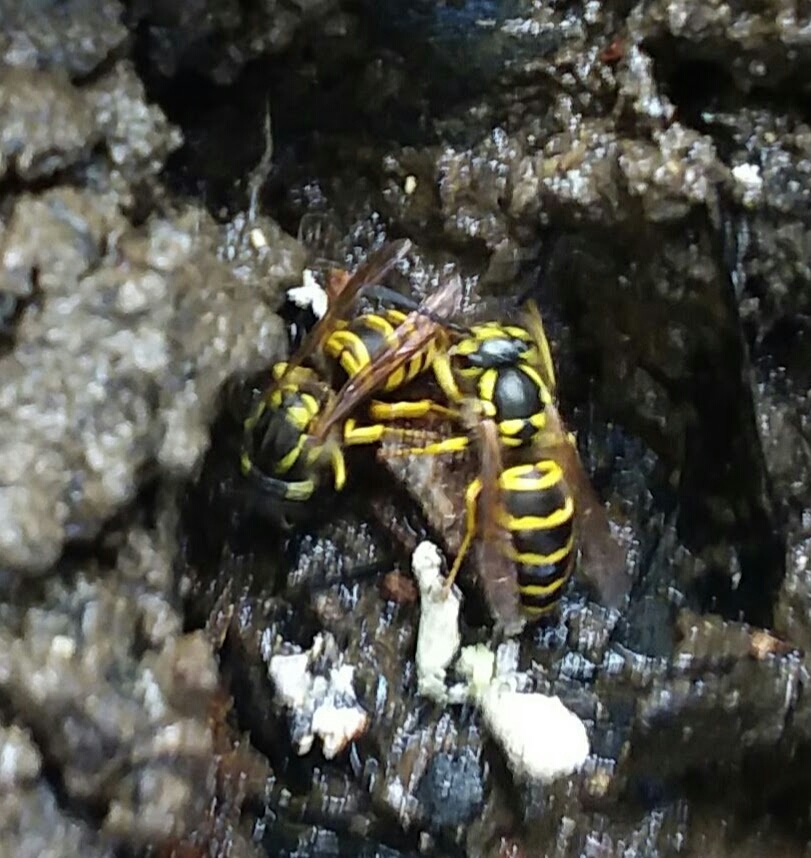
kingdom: Animalia
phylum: Arthropoda
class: Insecta
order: Hymenoptera
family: Vespidae
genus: Vespula
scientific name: Vespula maculifrons
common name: Eastern yellowjacket
